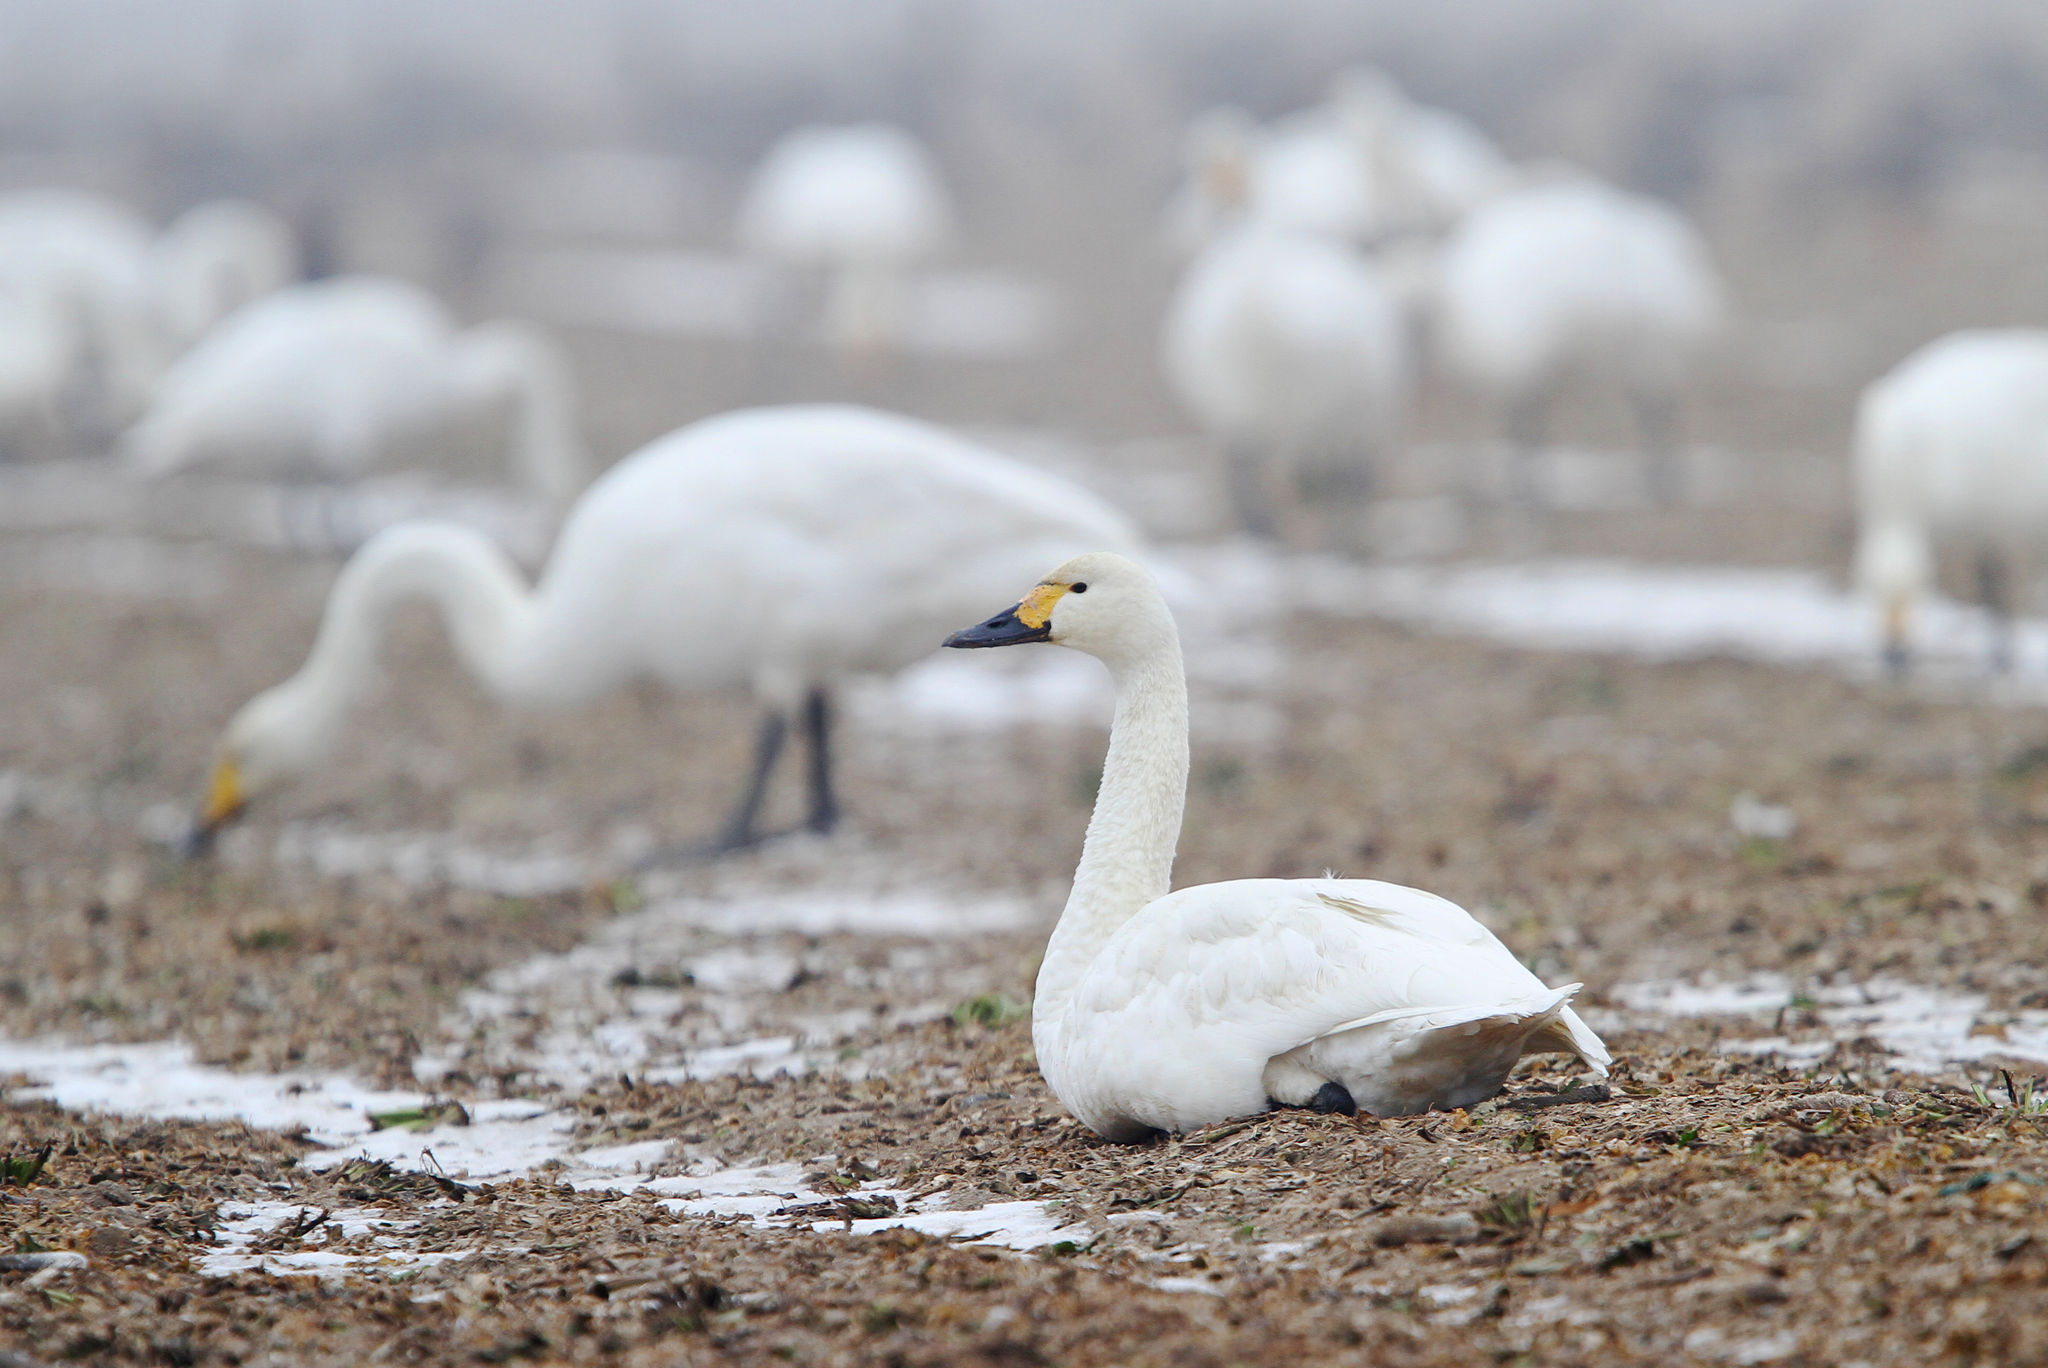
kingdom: Animalia
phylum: Chordata
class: Aves
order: Anseriformes
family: Anatidae
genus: Cygnus
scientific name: Cygnus columbianus
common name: Tundra swan
